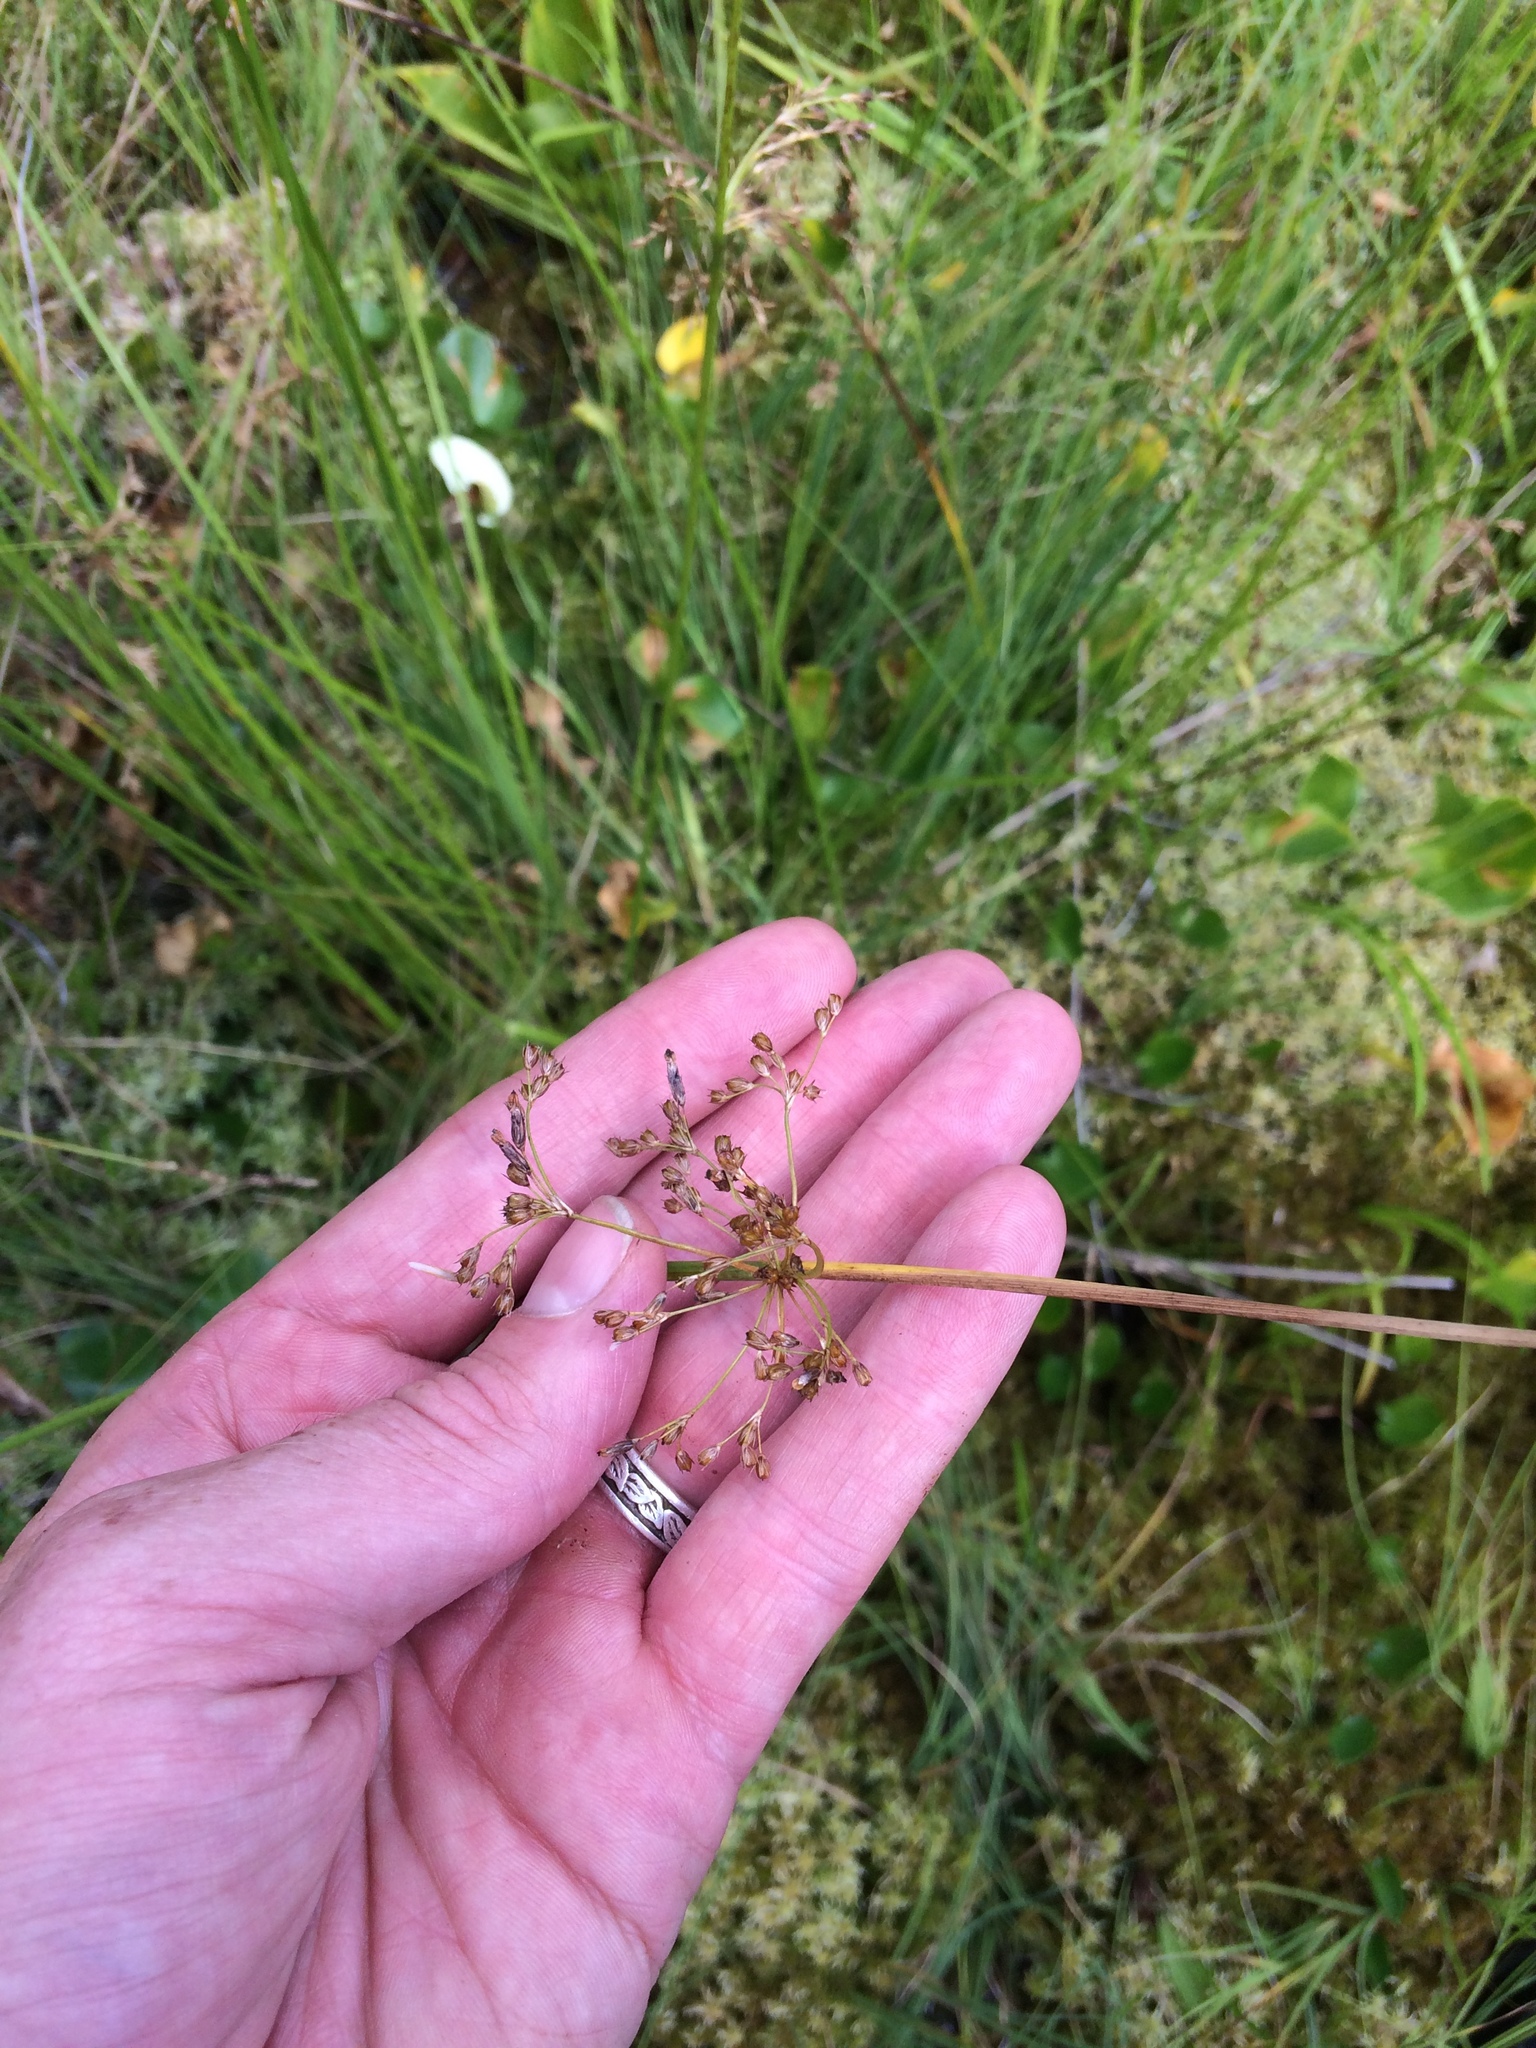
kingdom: Plantae
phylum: Tracheophyta
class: Liliopsida
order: Poales
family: Juncaceae
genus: Juncus
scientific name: Juncus effusus
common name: Soft rush
